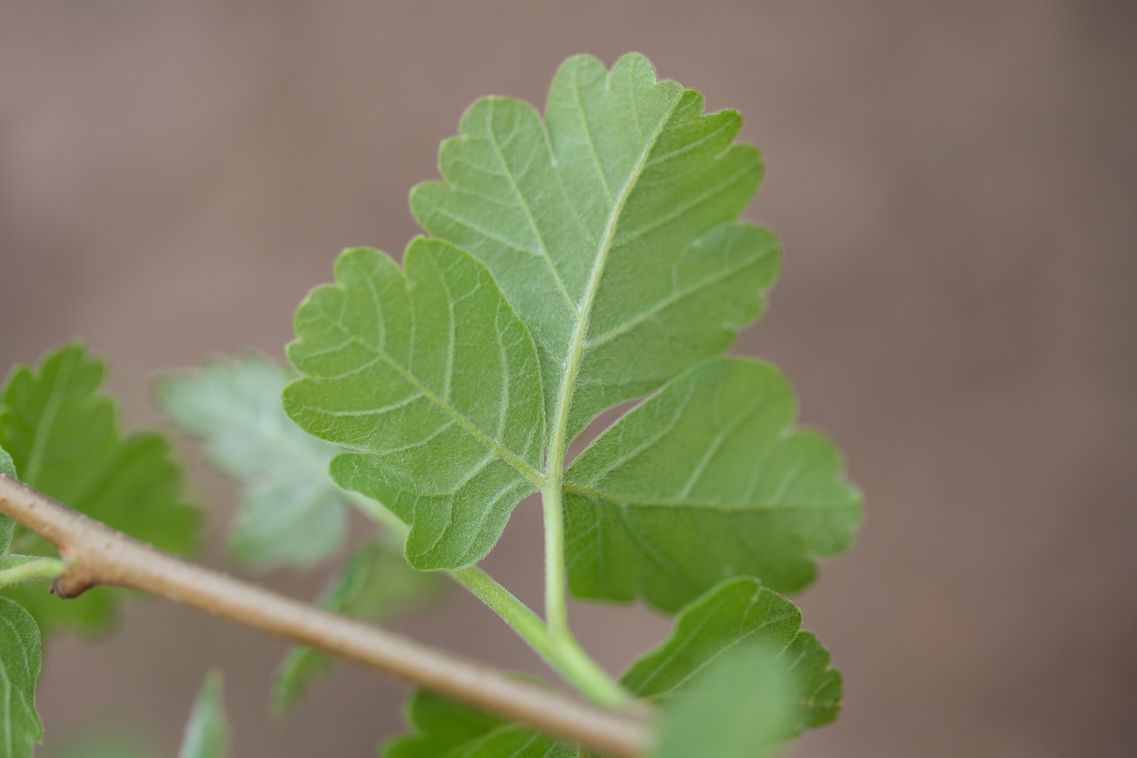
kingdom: Plantae
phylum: Tracheophyta
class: Magnoliopsida
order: Sapindales
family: Anacardiaceae
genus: Rhus
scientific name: Rhus aromatica
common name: Aromatic sumac
